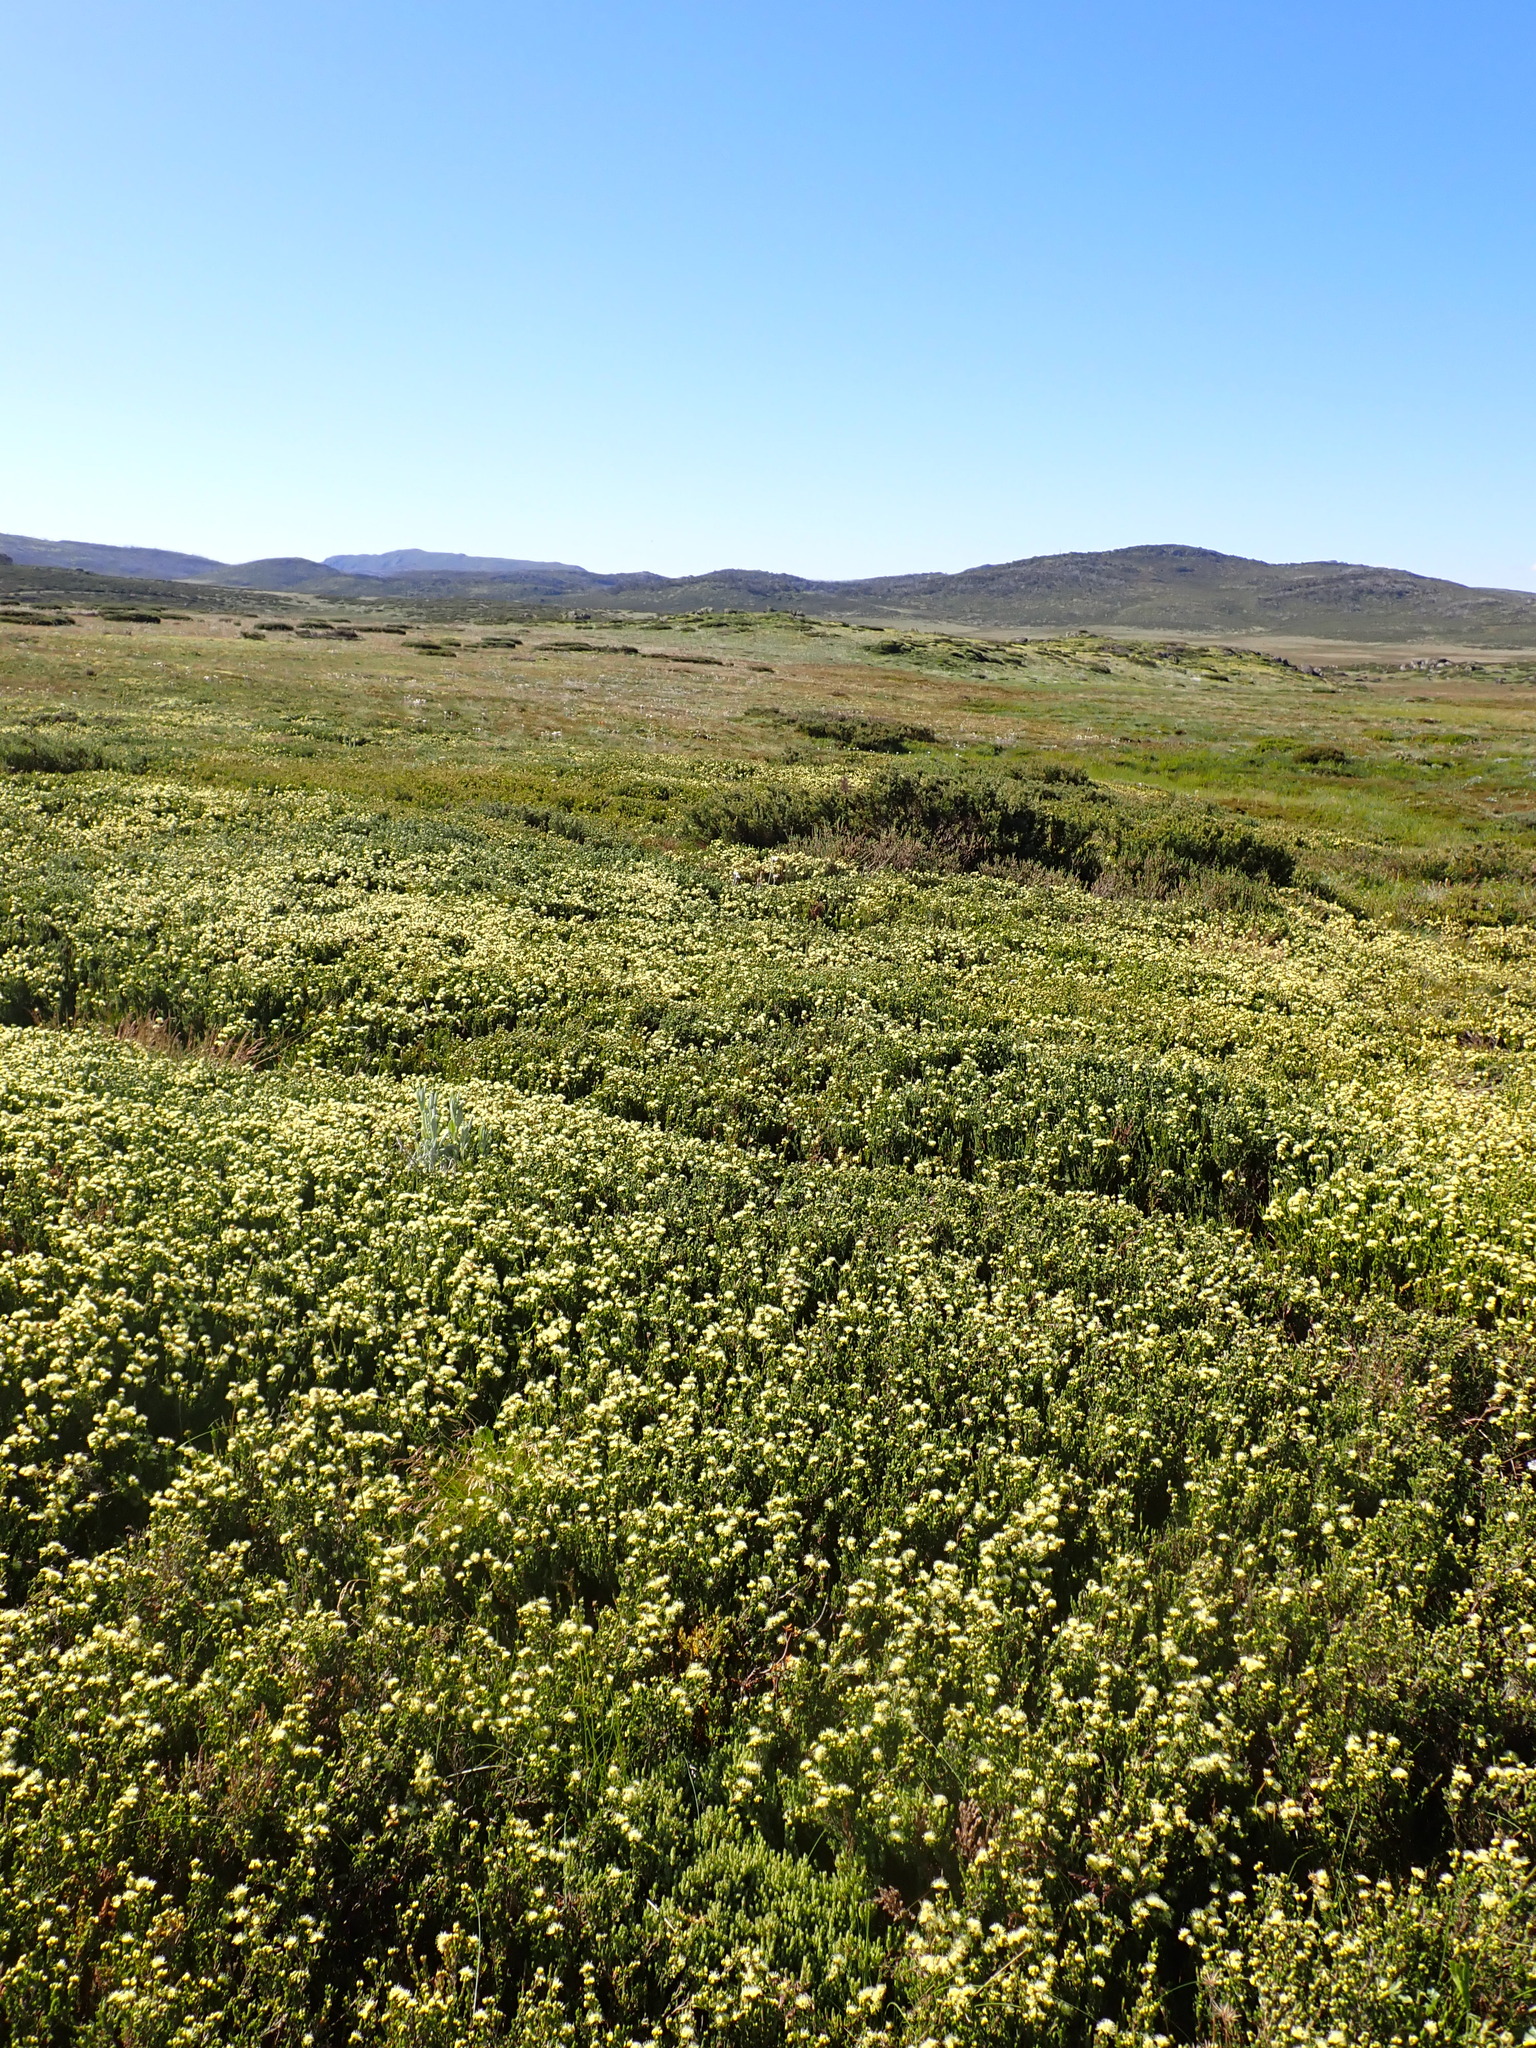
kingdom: Plantae
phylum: Tracheophyta
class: Magnoliopsida
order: Myrtales
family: Myrtaceae
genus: Kunzea
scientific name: Kunzea muelleri
